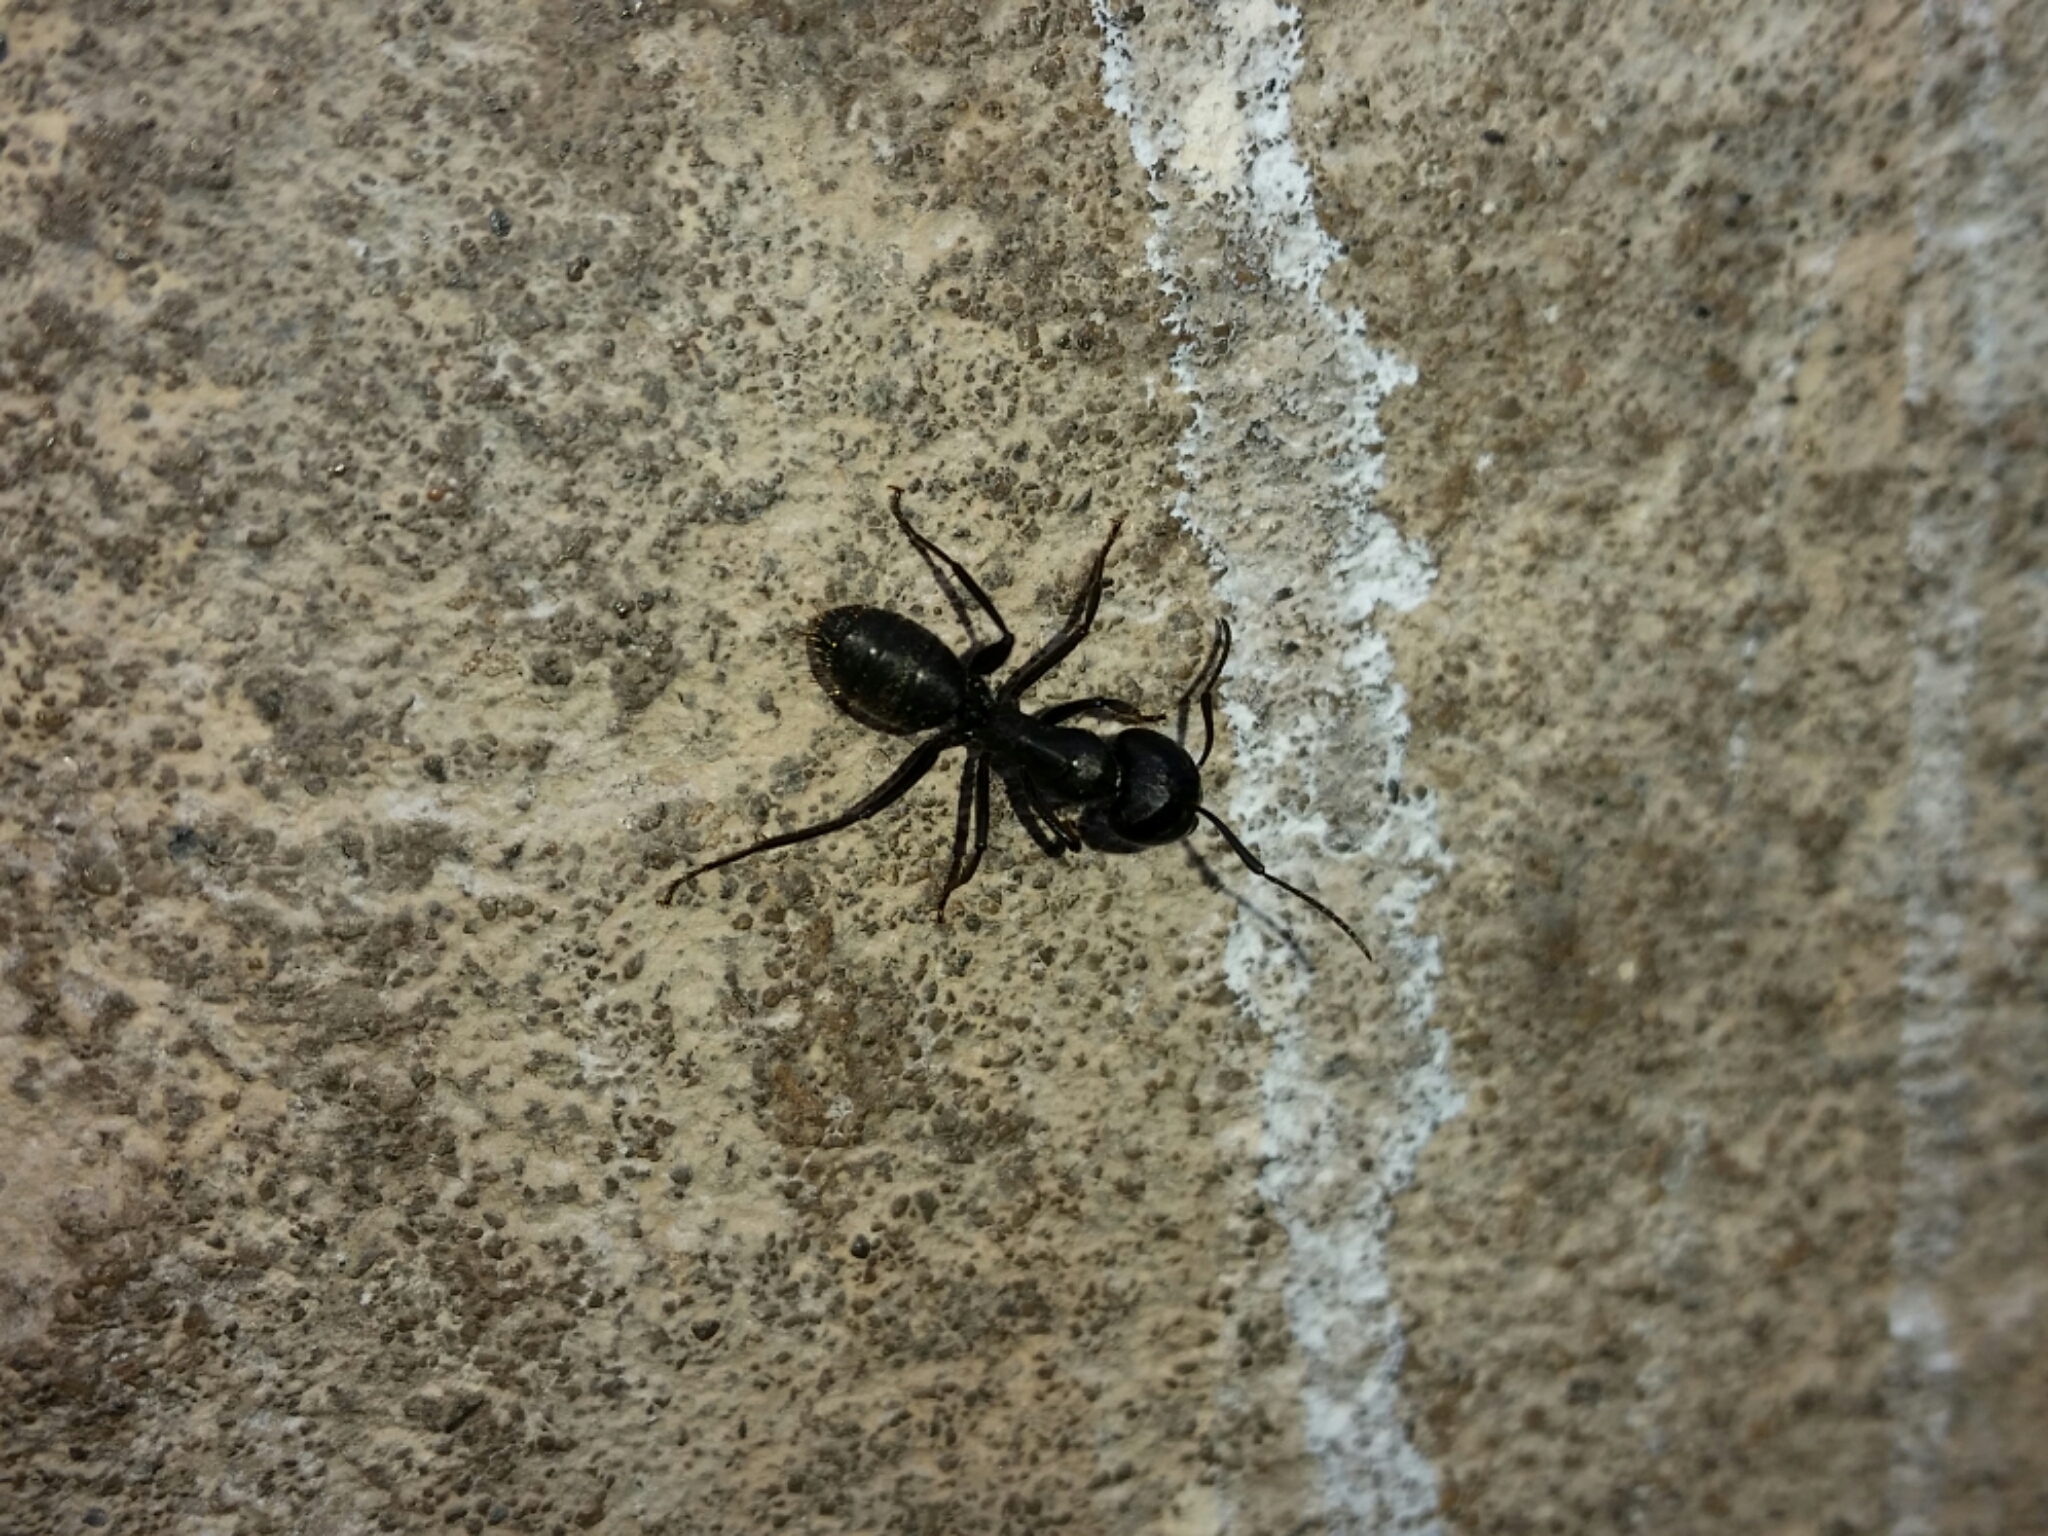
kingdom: Animalia
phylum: Arthropoda
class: Insecta
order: Hymenoptera
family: Formicidae
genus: Camponotus
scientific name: Camponotus vagus
